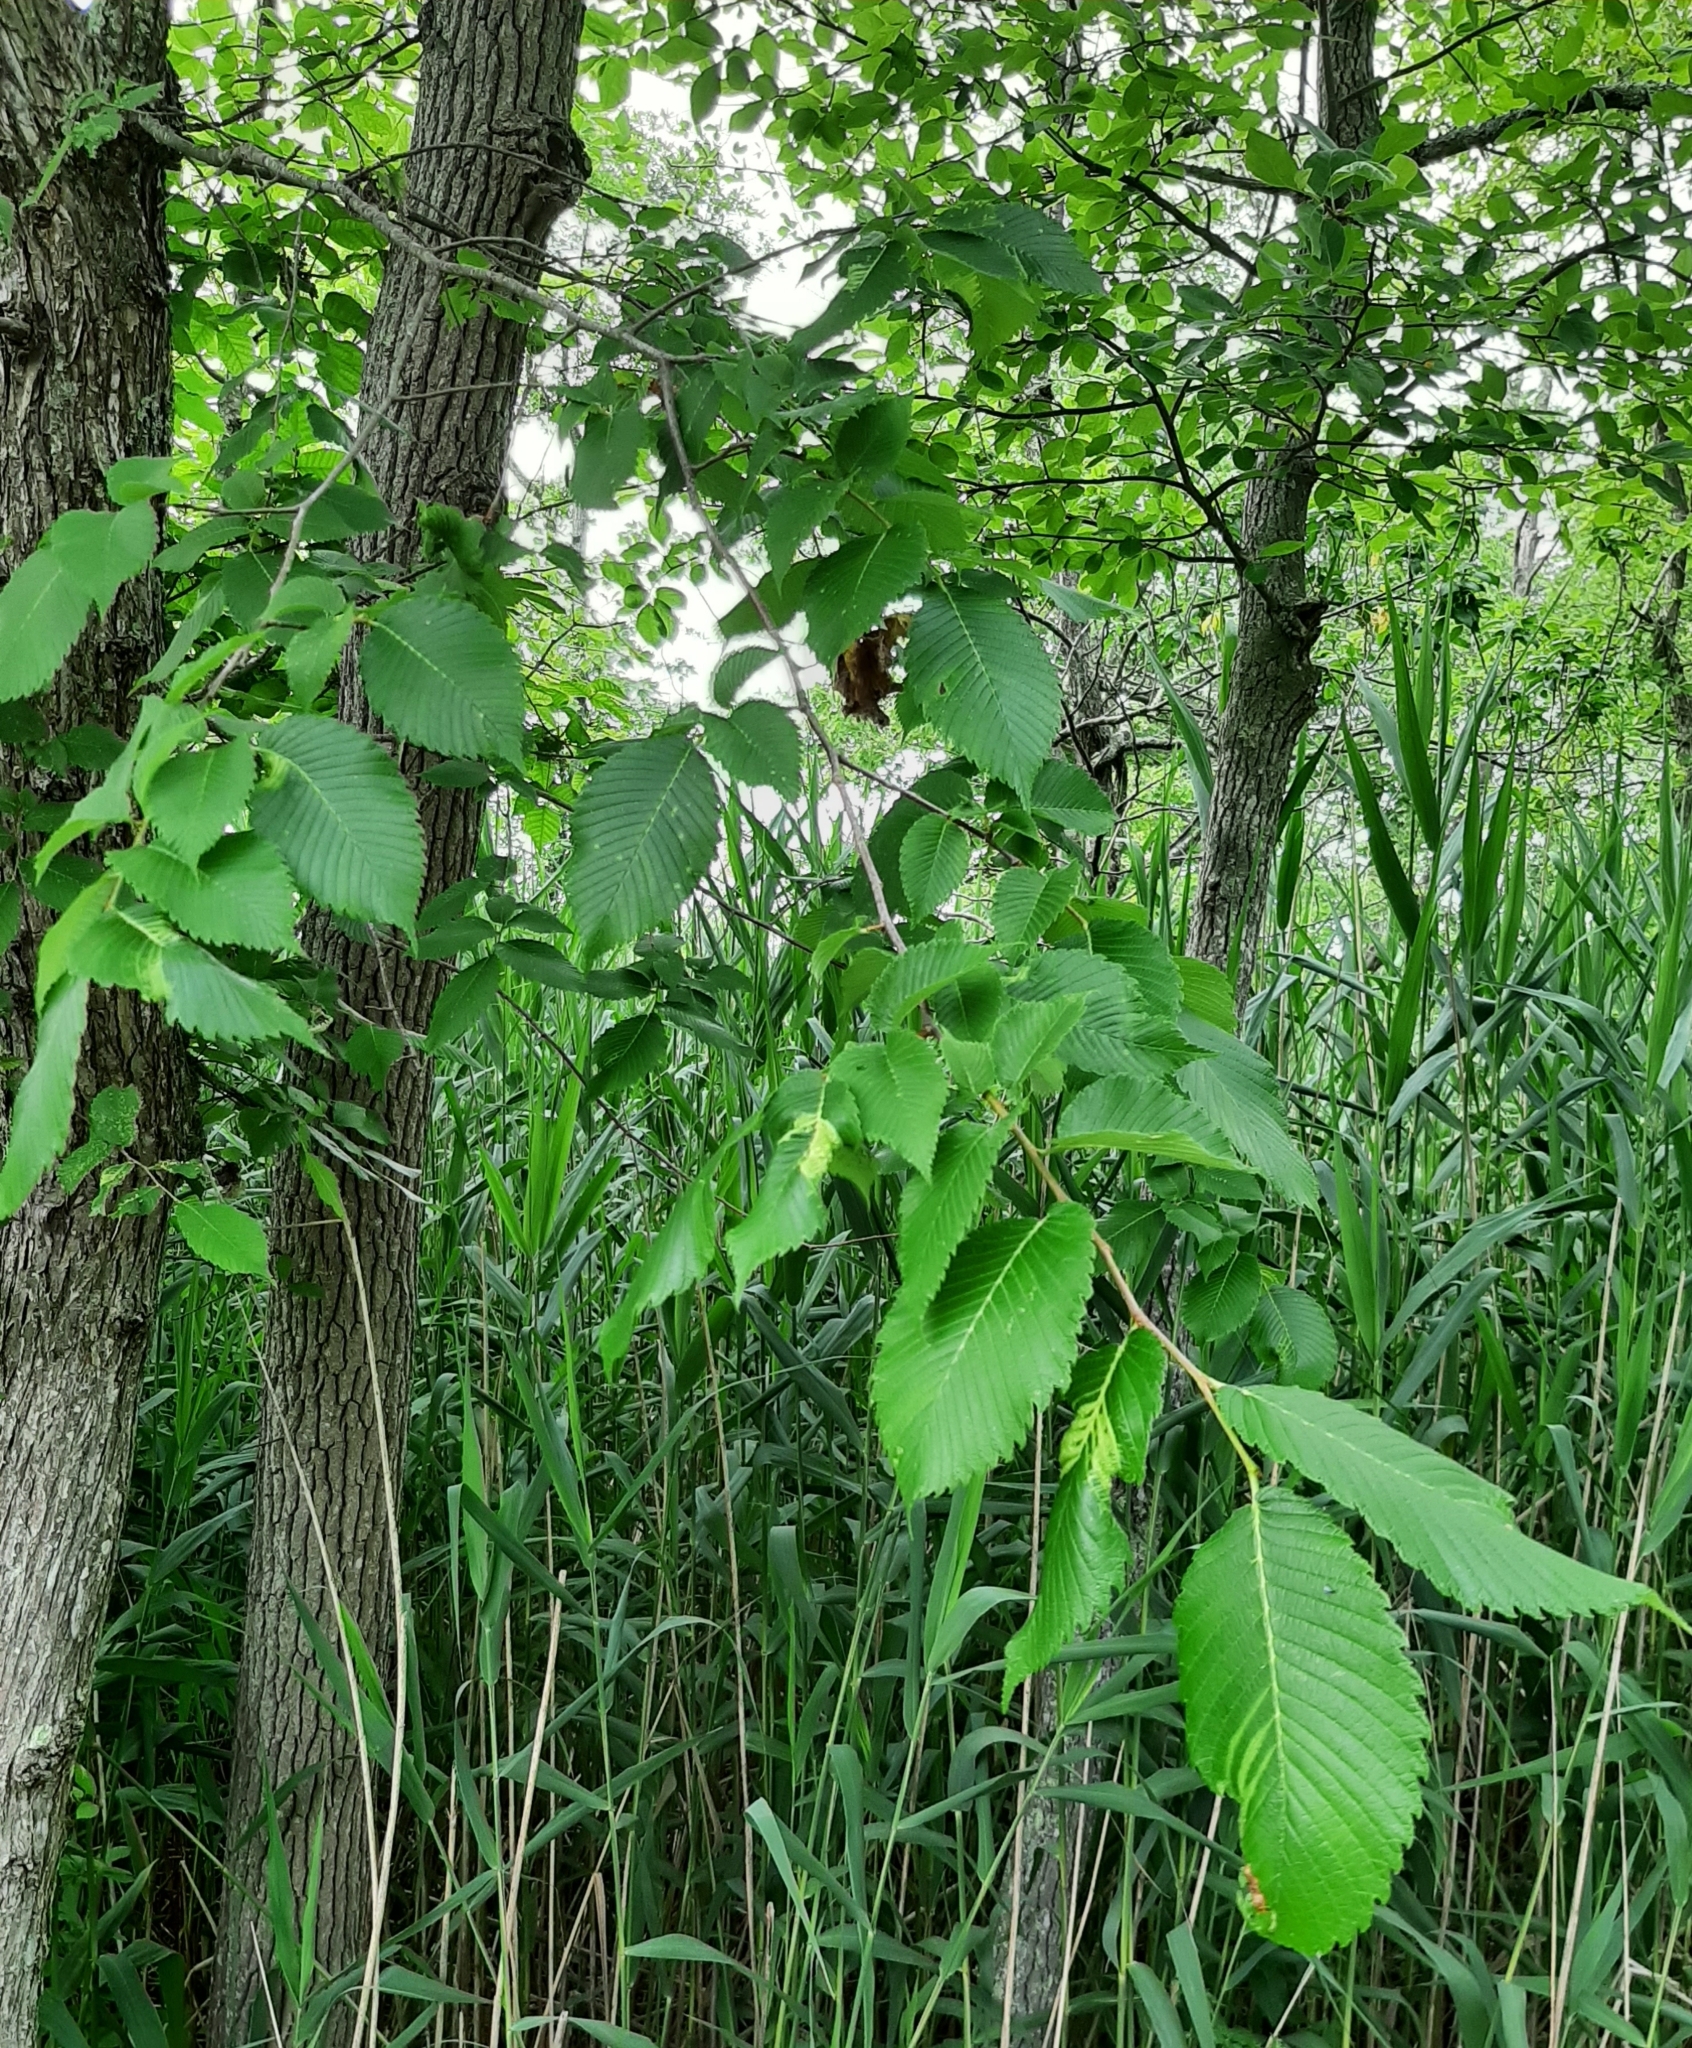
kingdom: Animalia
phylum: Arthropoda
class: Insecta
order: Hemiptera
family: Aphididae
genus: Eriosoma
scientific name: Eriosoma americanum
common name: Woolly elm aphid
